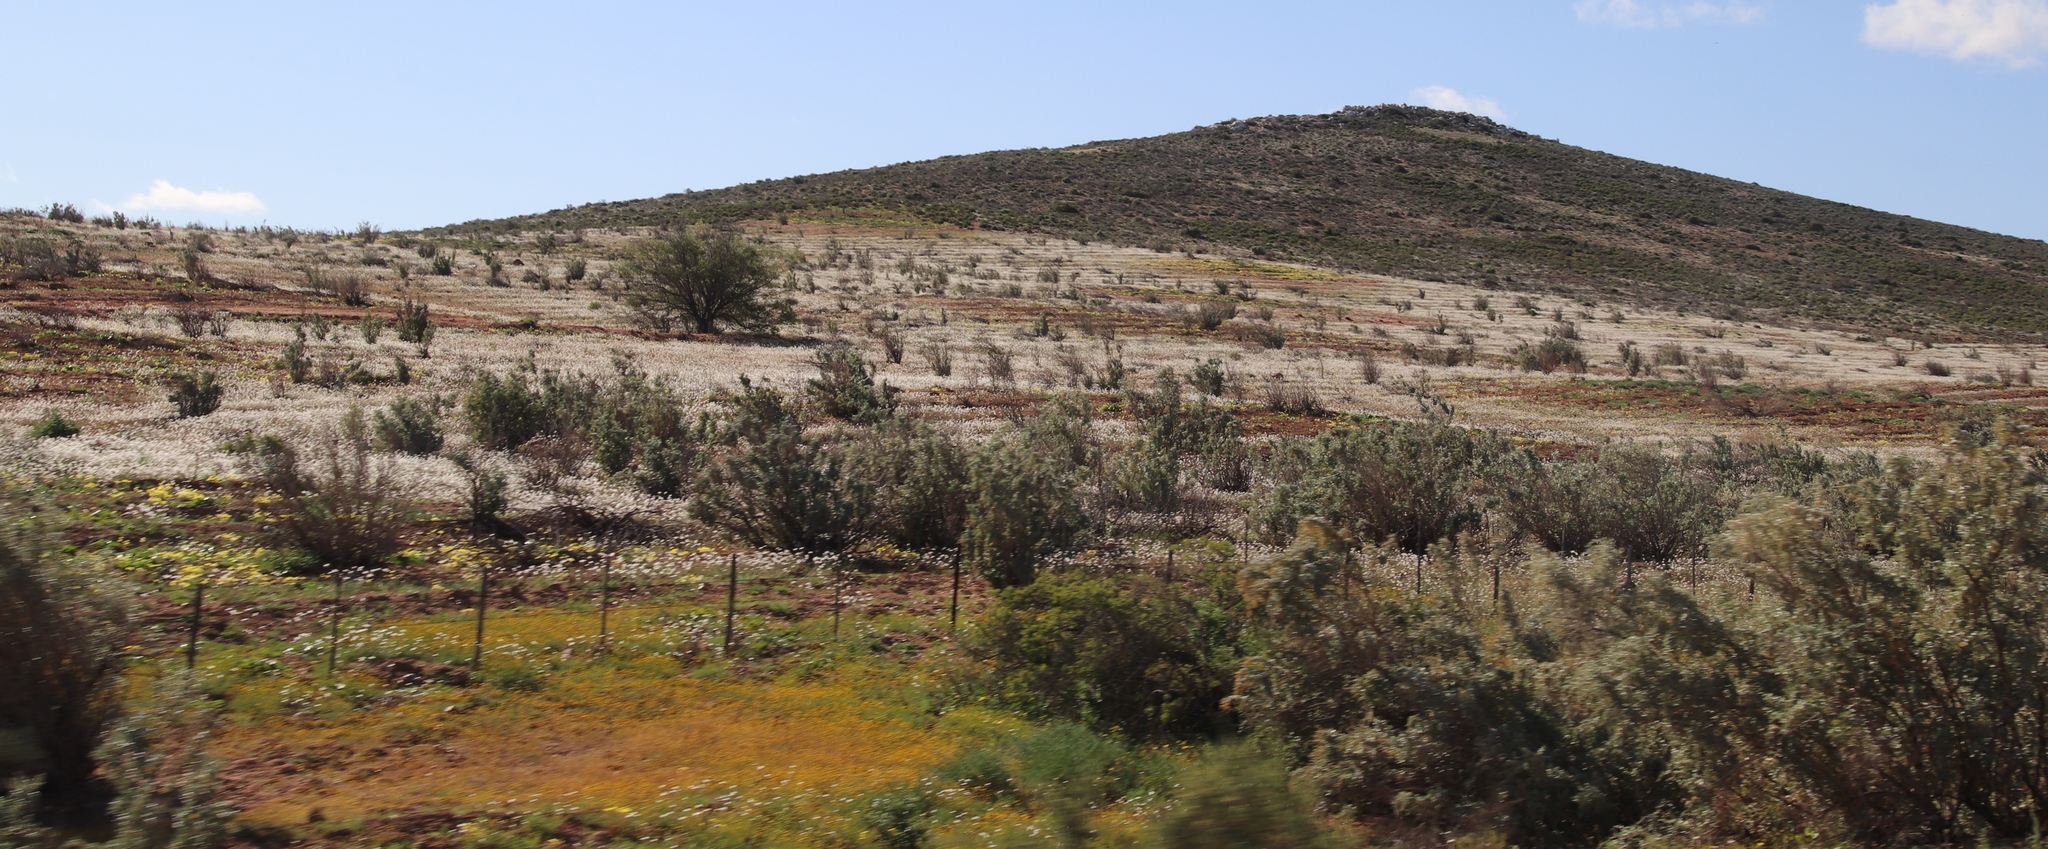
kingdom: Plantae
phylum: Tracheophyta
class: Magnoliopsida
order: Brassicales
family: Brassicaceae
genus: Heliophila
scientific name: Heliophila variabilis
